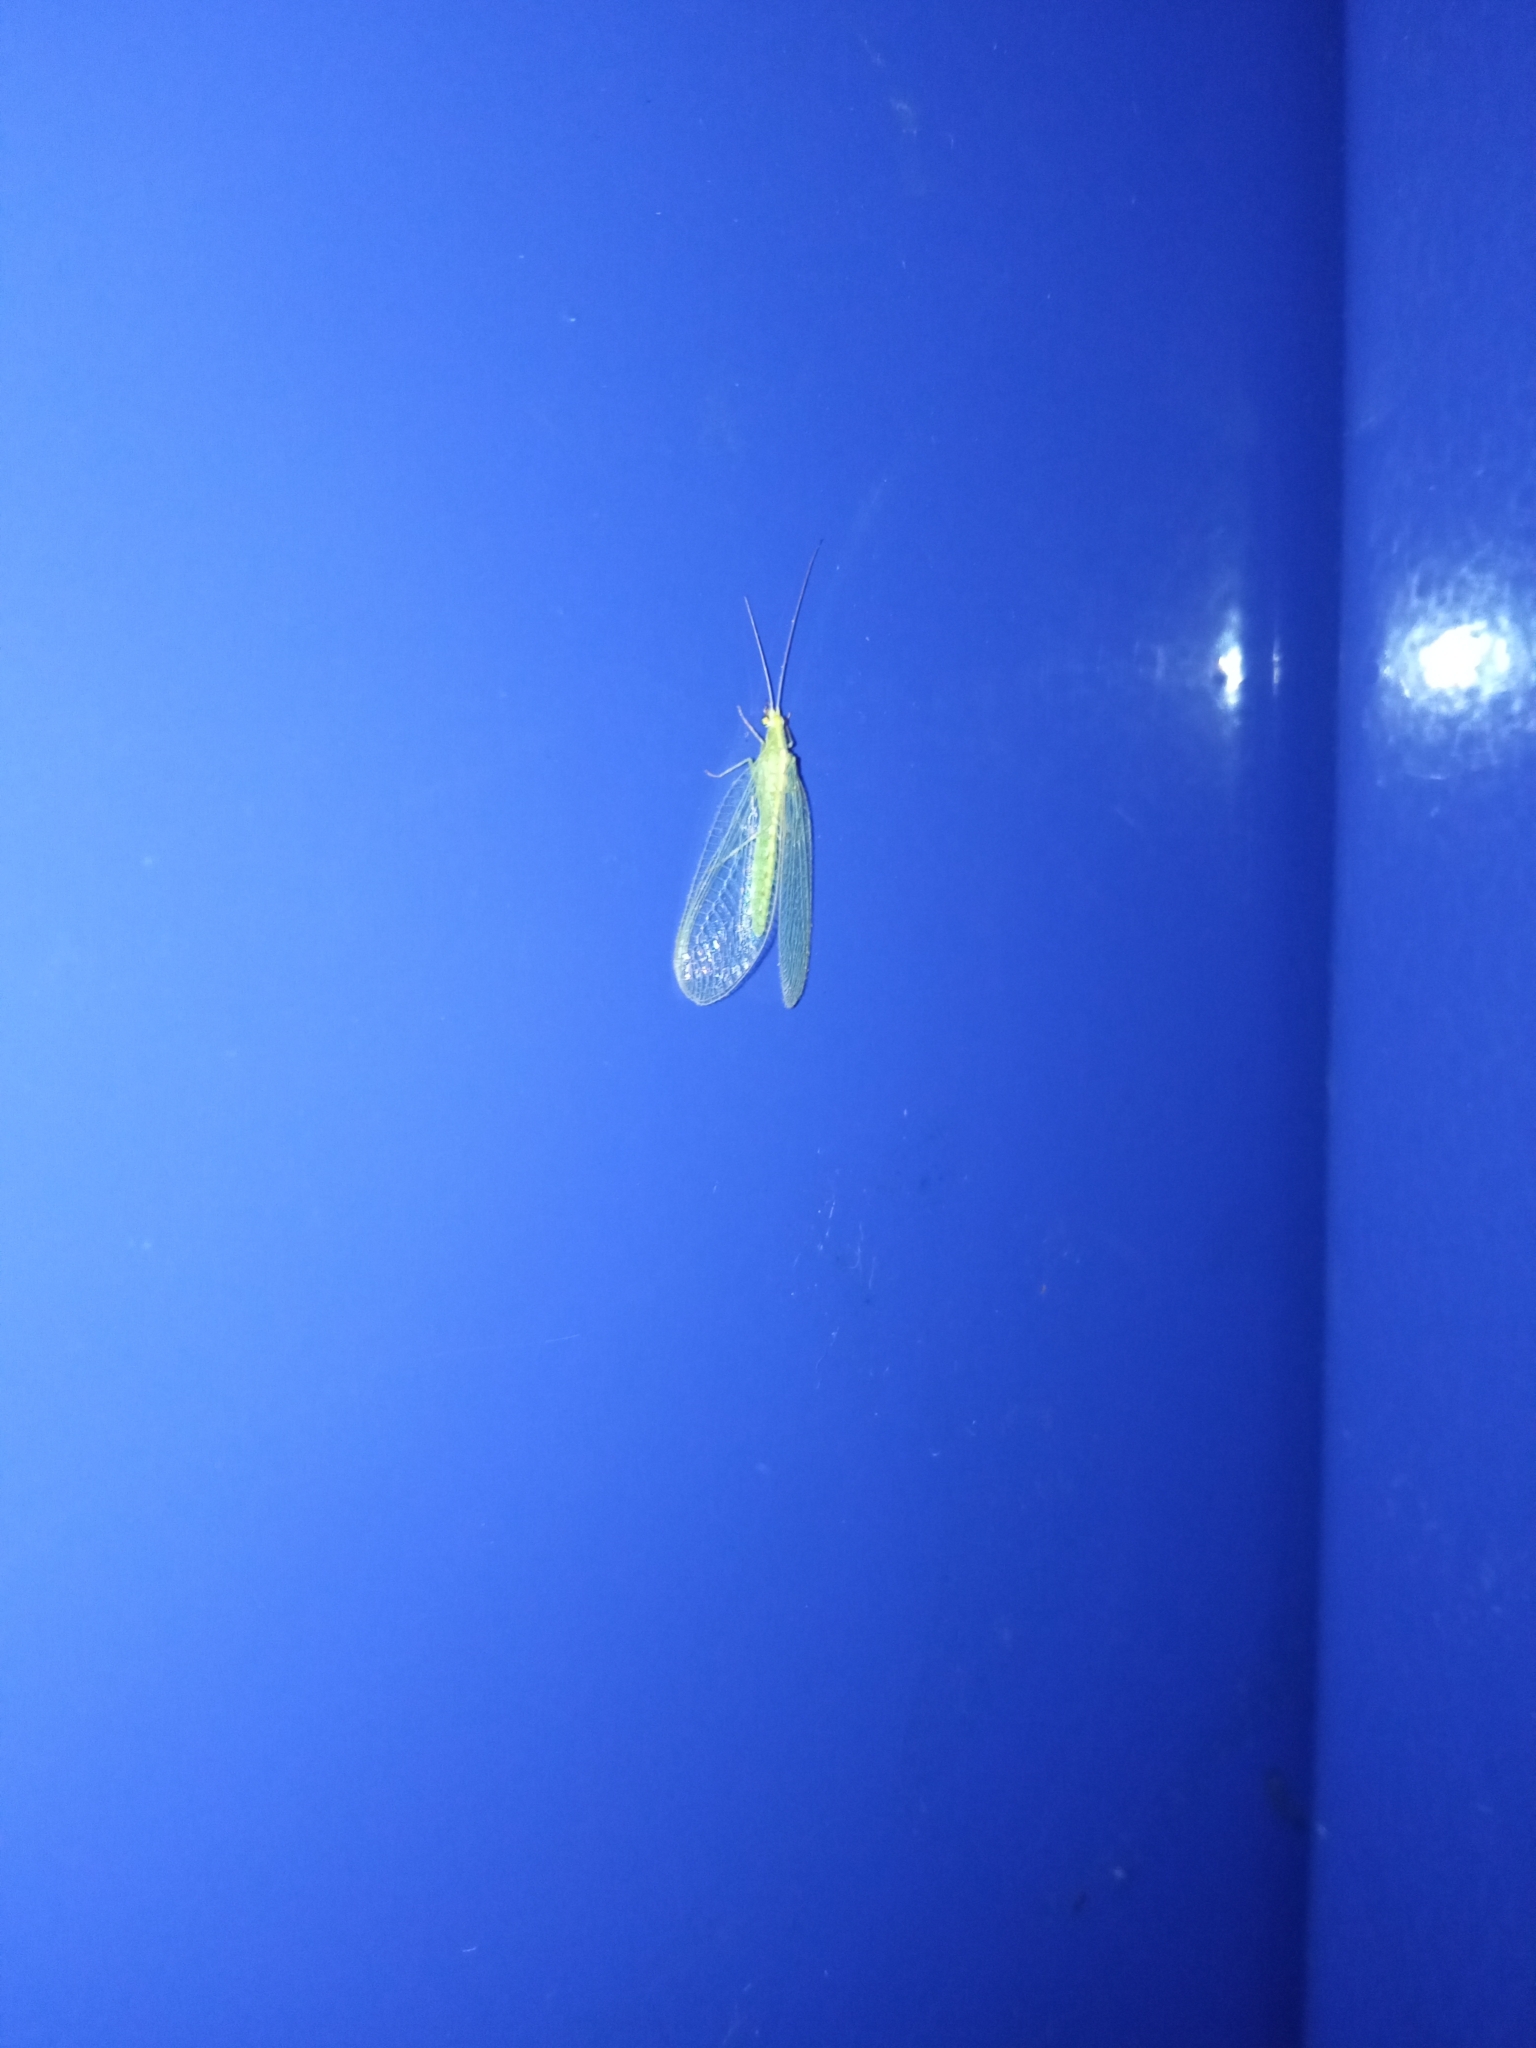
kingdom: Animalia
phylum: Arthropoda
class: Insecta
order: Neuroptera
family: Chrysopidae
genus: Chrysoperla
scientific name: Chrysoperla
